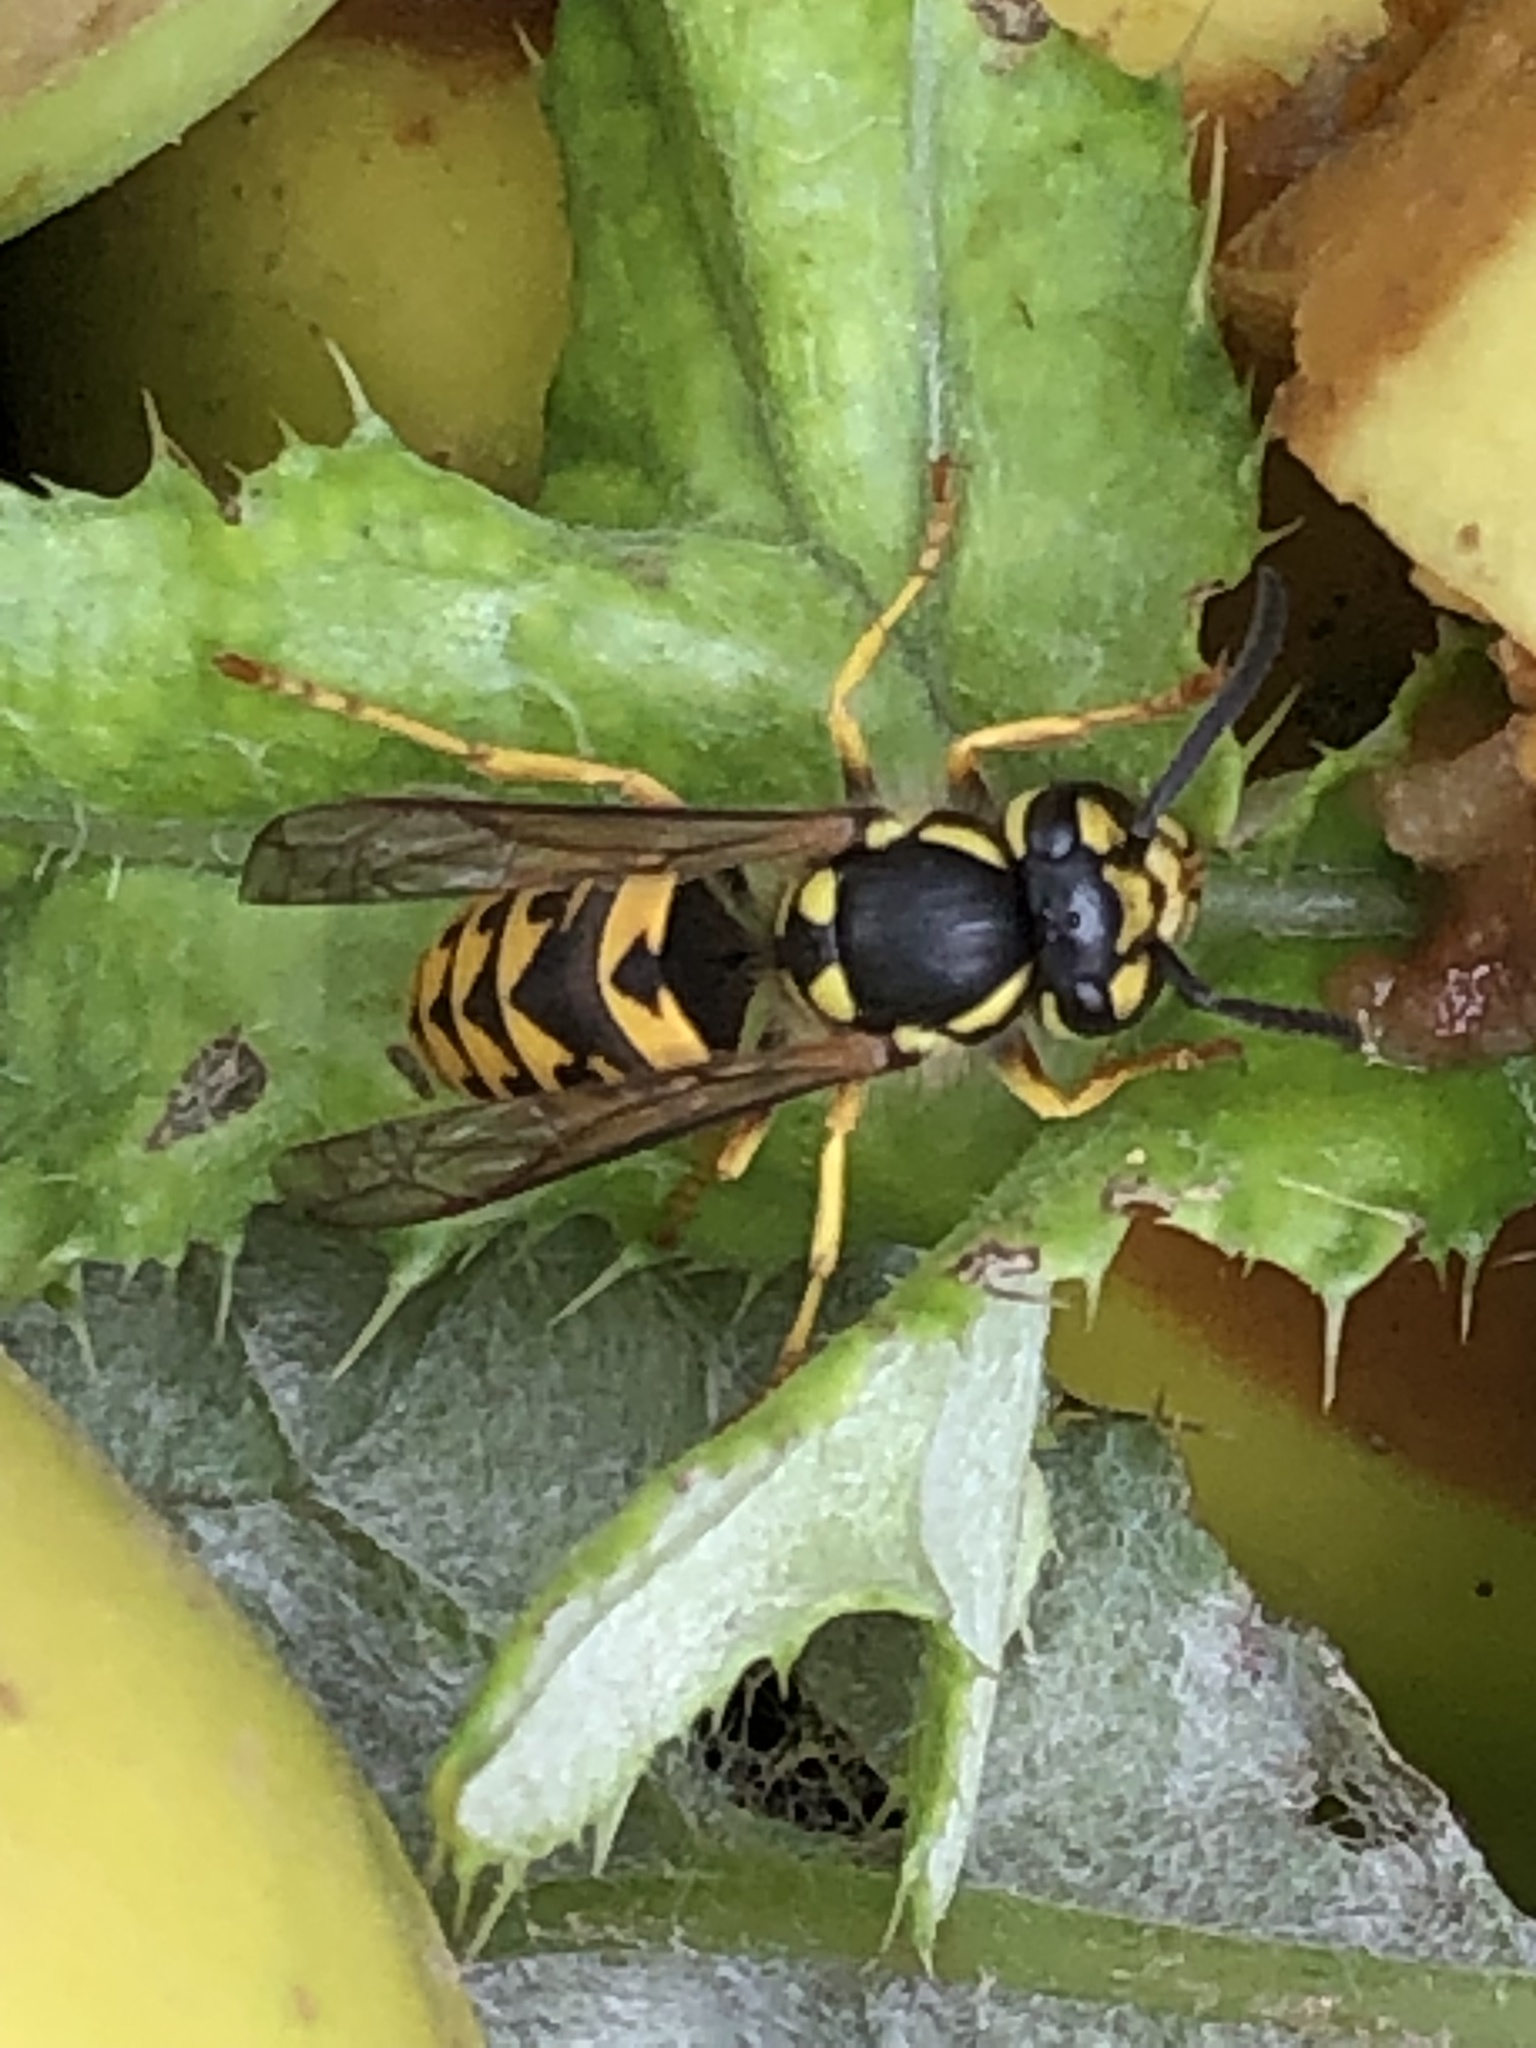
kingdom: Animalia
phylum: Arthropoda
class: Insecta
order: Hymenoptera
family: Vespidae
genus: Vespula
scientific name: Vespula germanica
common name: German wasp
